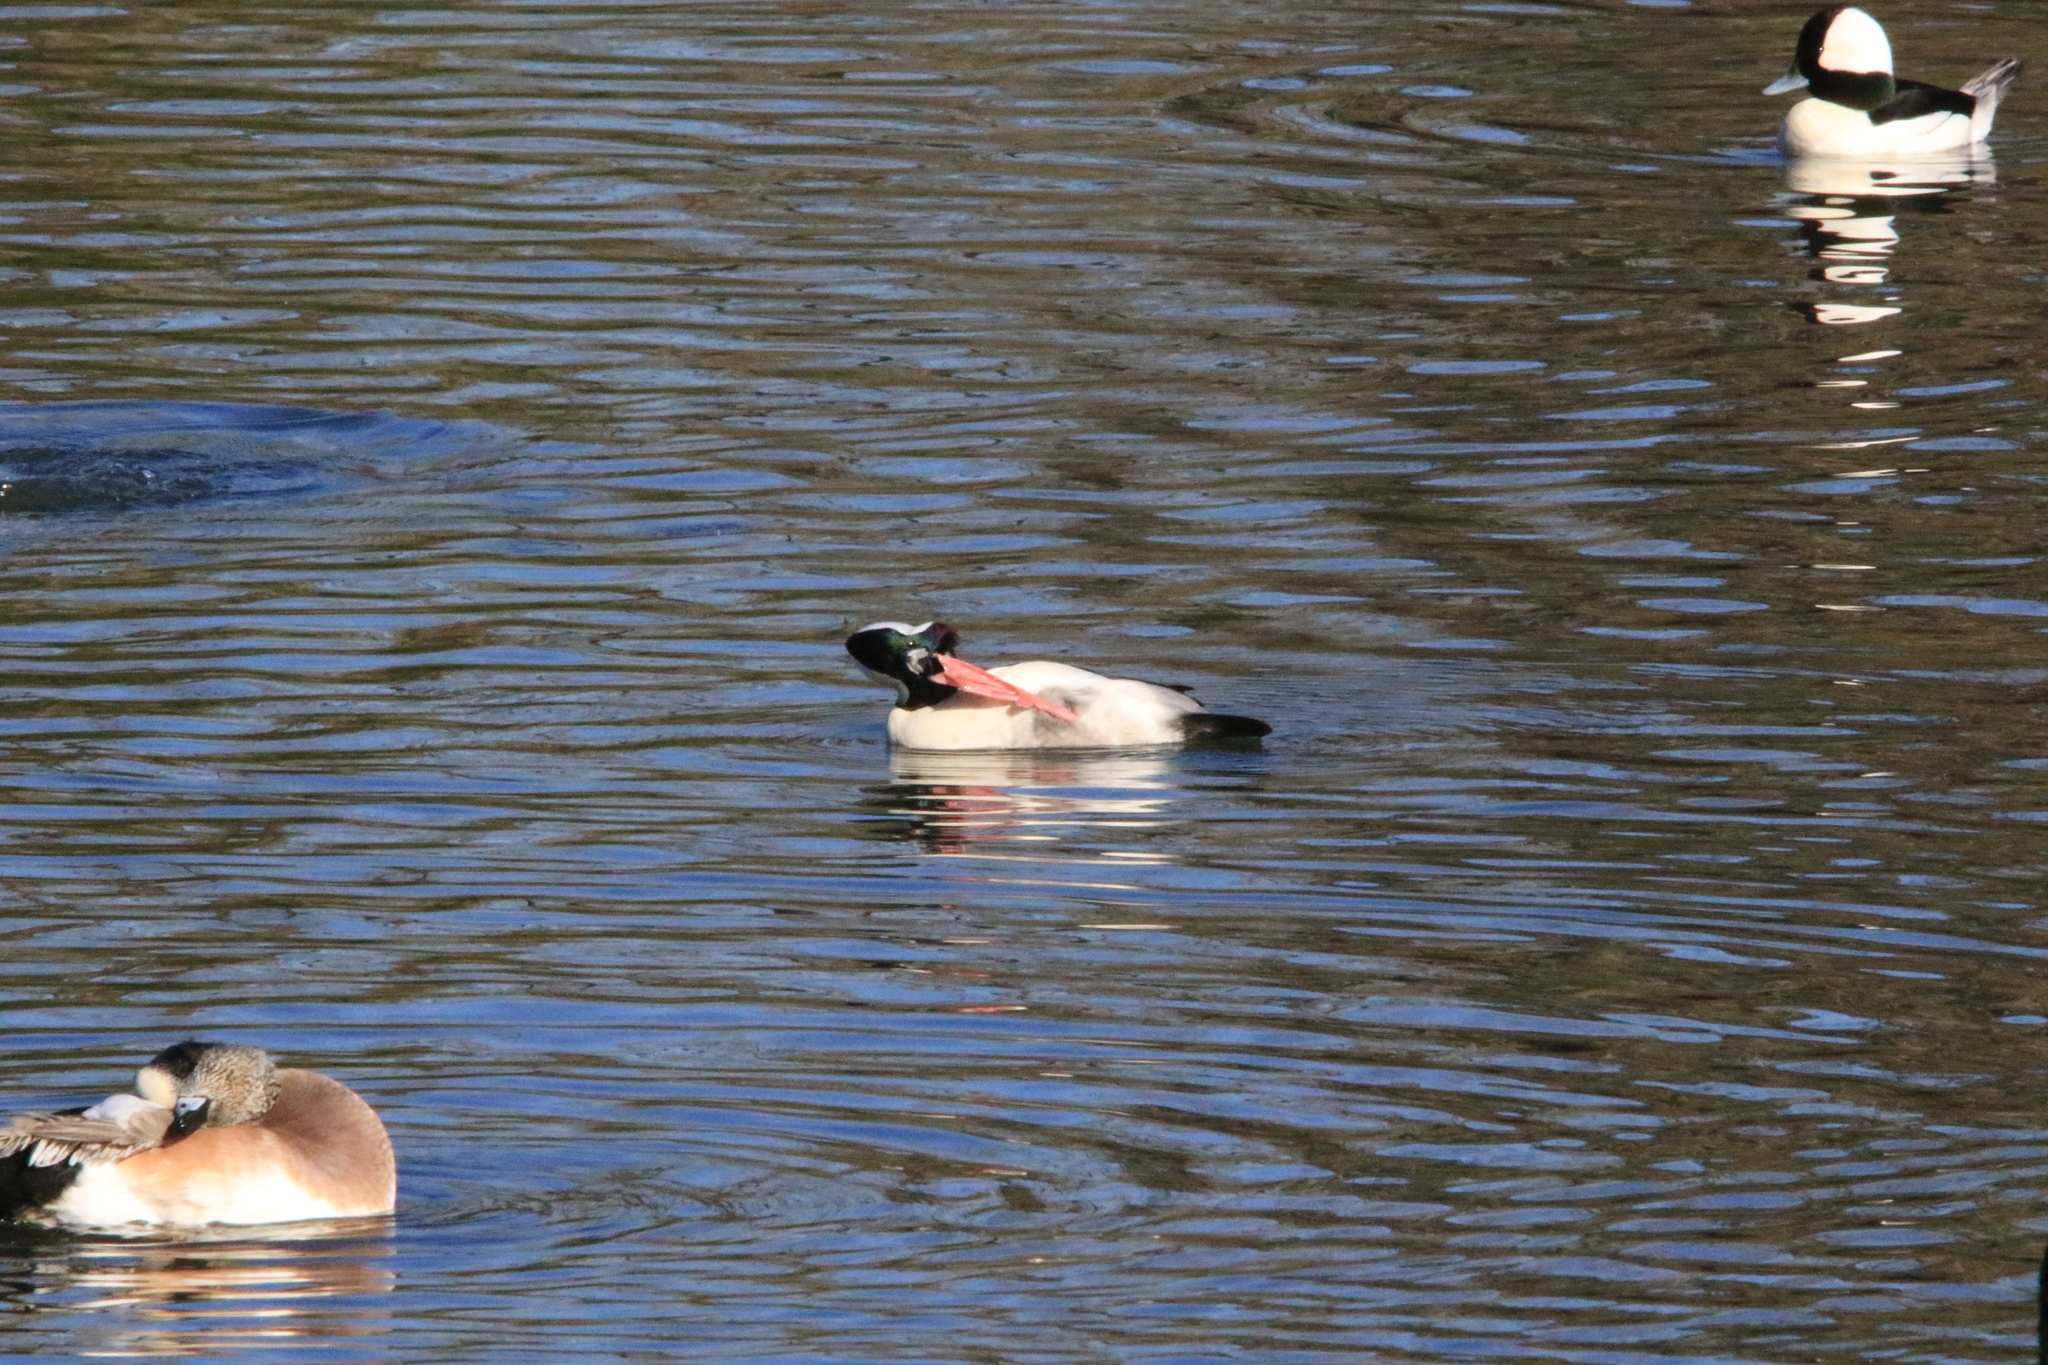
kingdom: Animalia
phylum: Chordata
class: Aves
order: Anseriformes
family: Anatidae
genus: Bucephala
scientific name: Bucephala albeola
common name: Bufflehead
